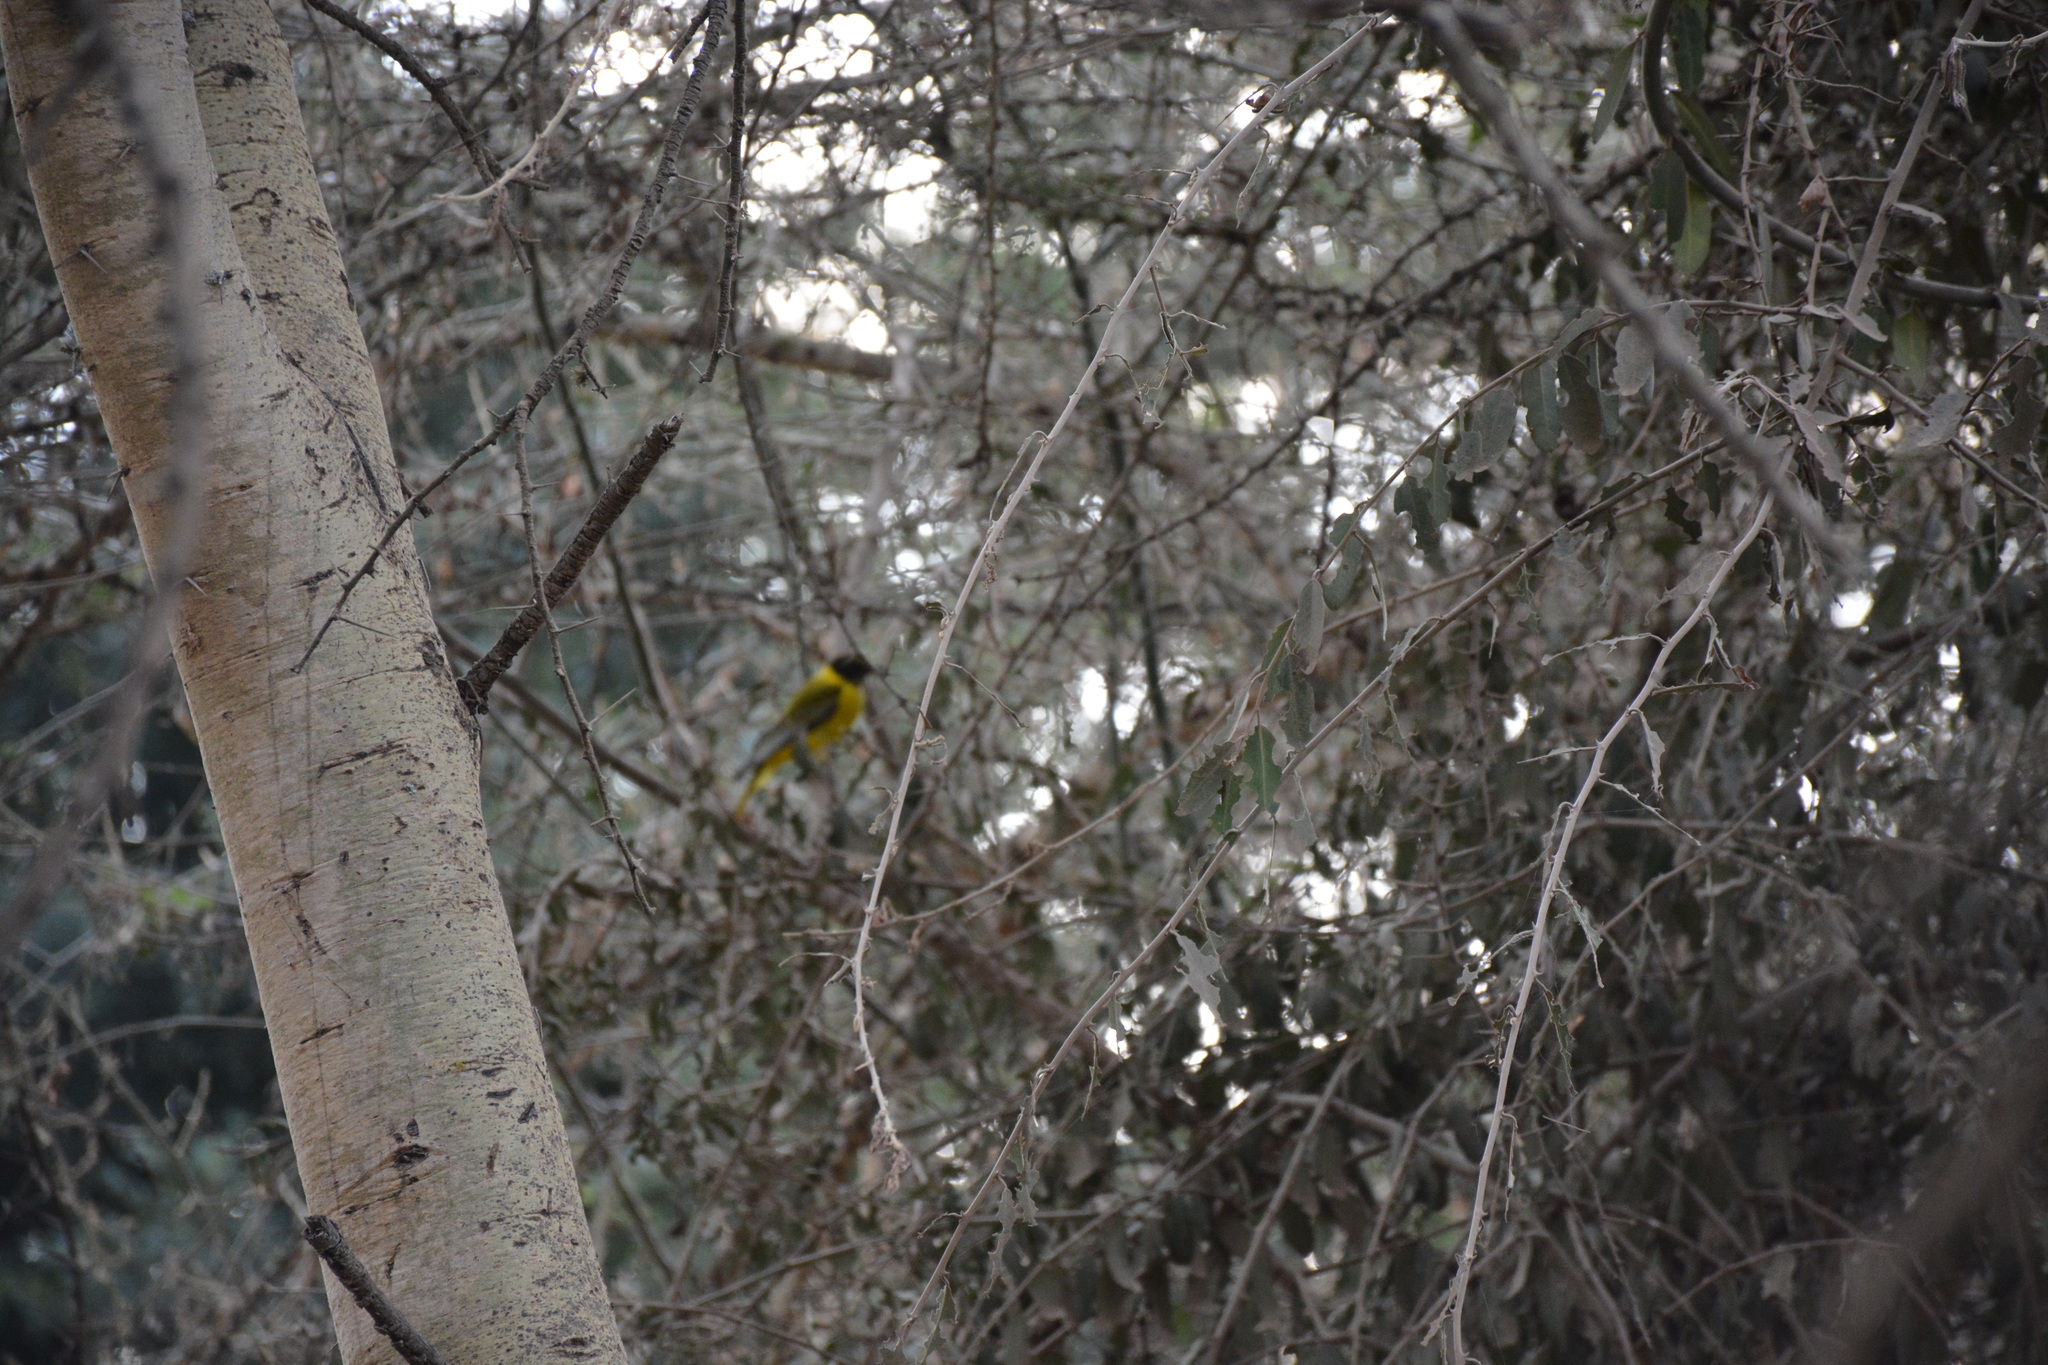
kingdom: Animalia
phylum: Chordata
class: Aves
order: Passeriformes
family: Oriolidae
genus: Oriolus
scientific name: Oriolus larvatus
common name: Black-headed oriole
